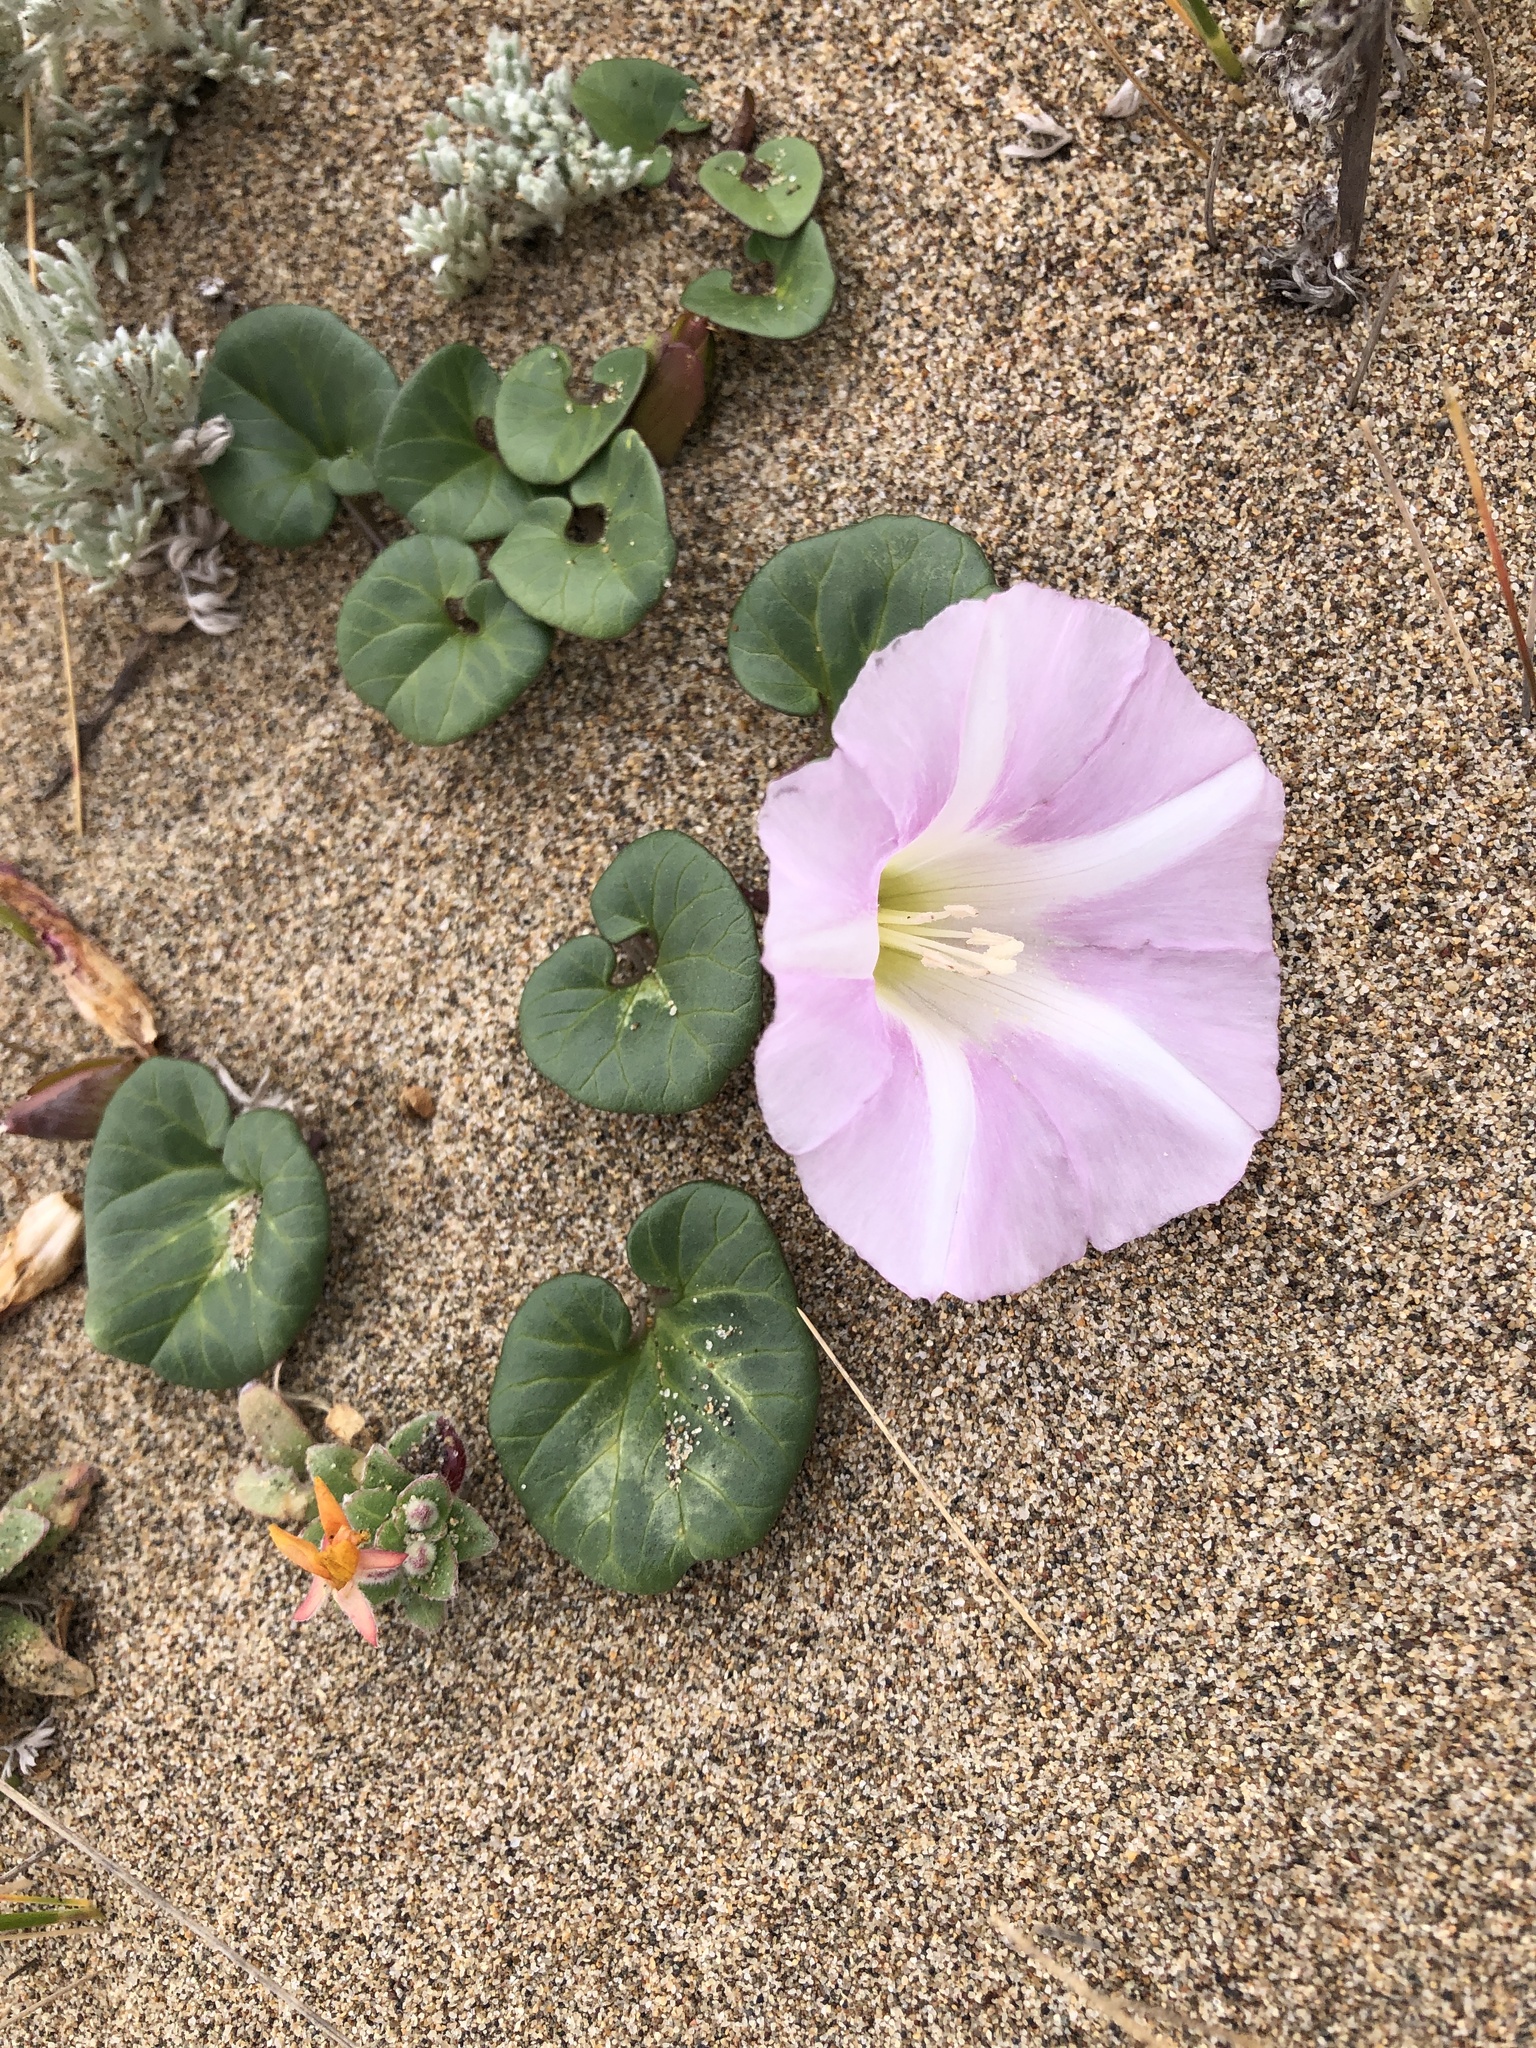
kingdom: Plantae
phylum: Tracheophyta
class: Magnoliopsida
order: Solanales
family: Convolvulaceae
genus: Calystegia
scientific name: Calystegia soldanella
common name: Sea bindweed
